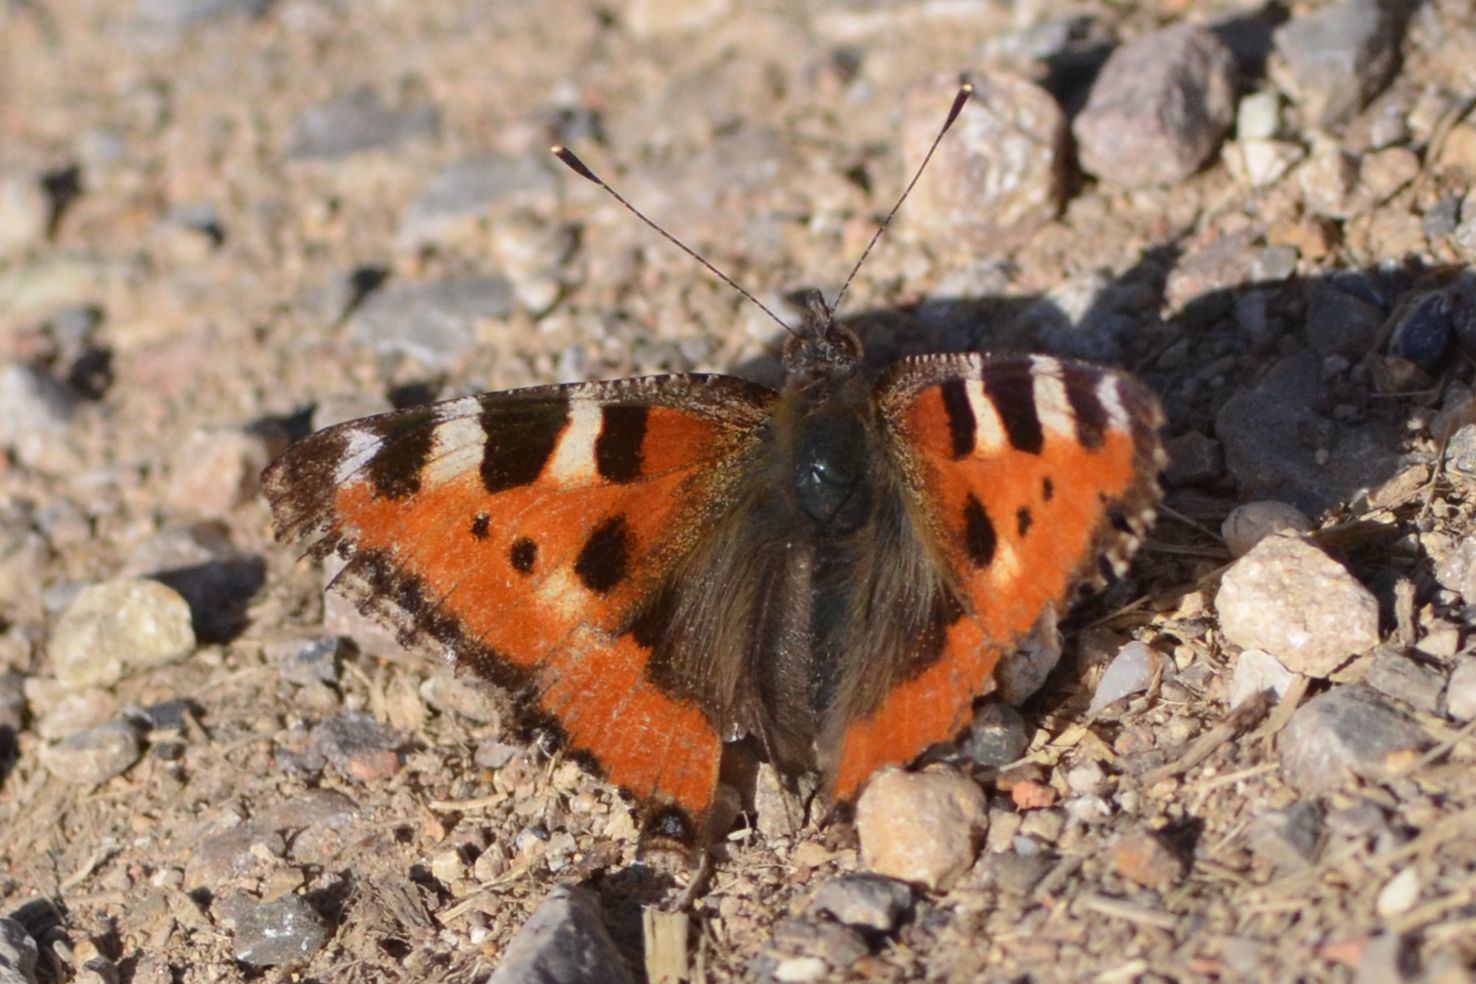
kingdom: Animalia
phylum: Arthropoda
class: Insecta
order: Lepidoptera
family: Nymphalidae
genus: Aglais
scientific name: Aglais urticae
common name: Small tortoiseshell
